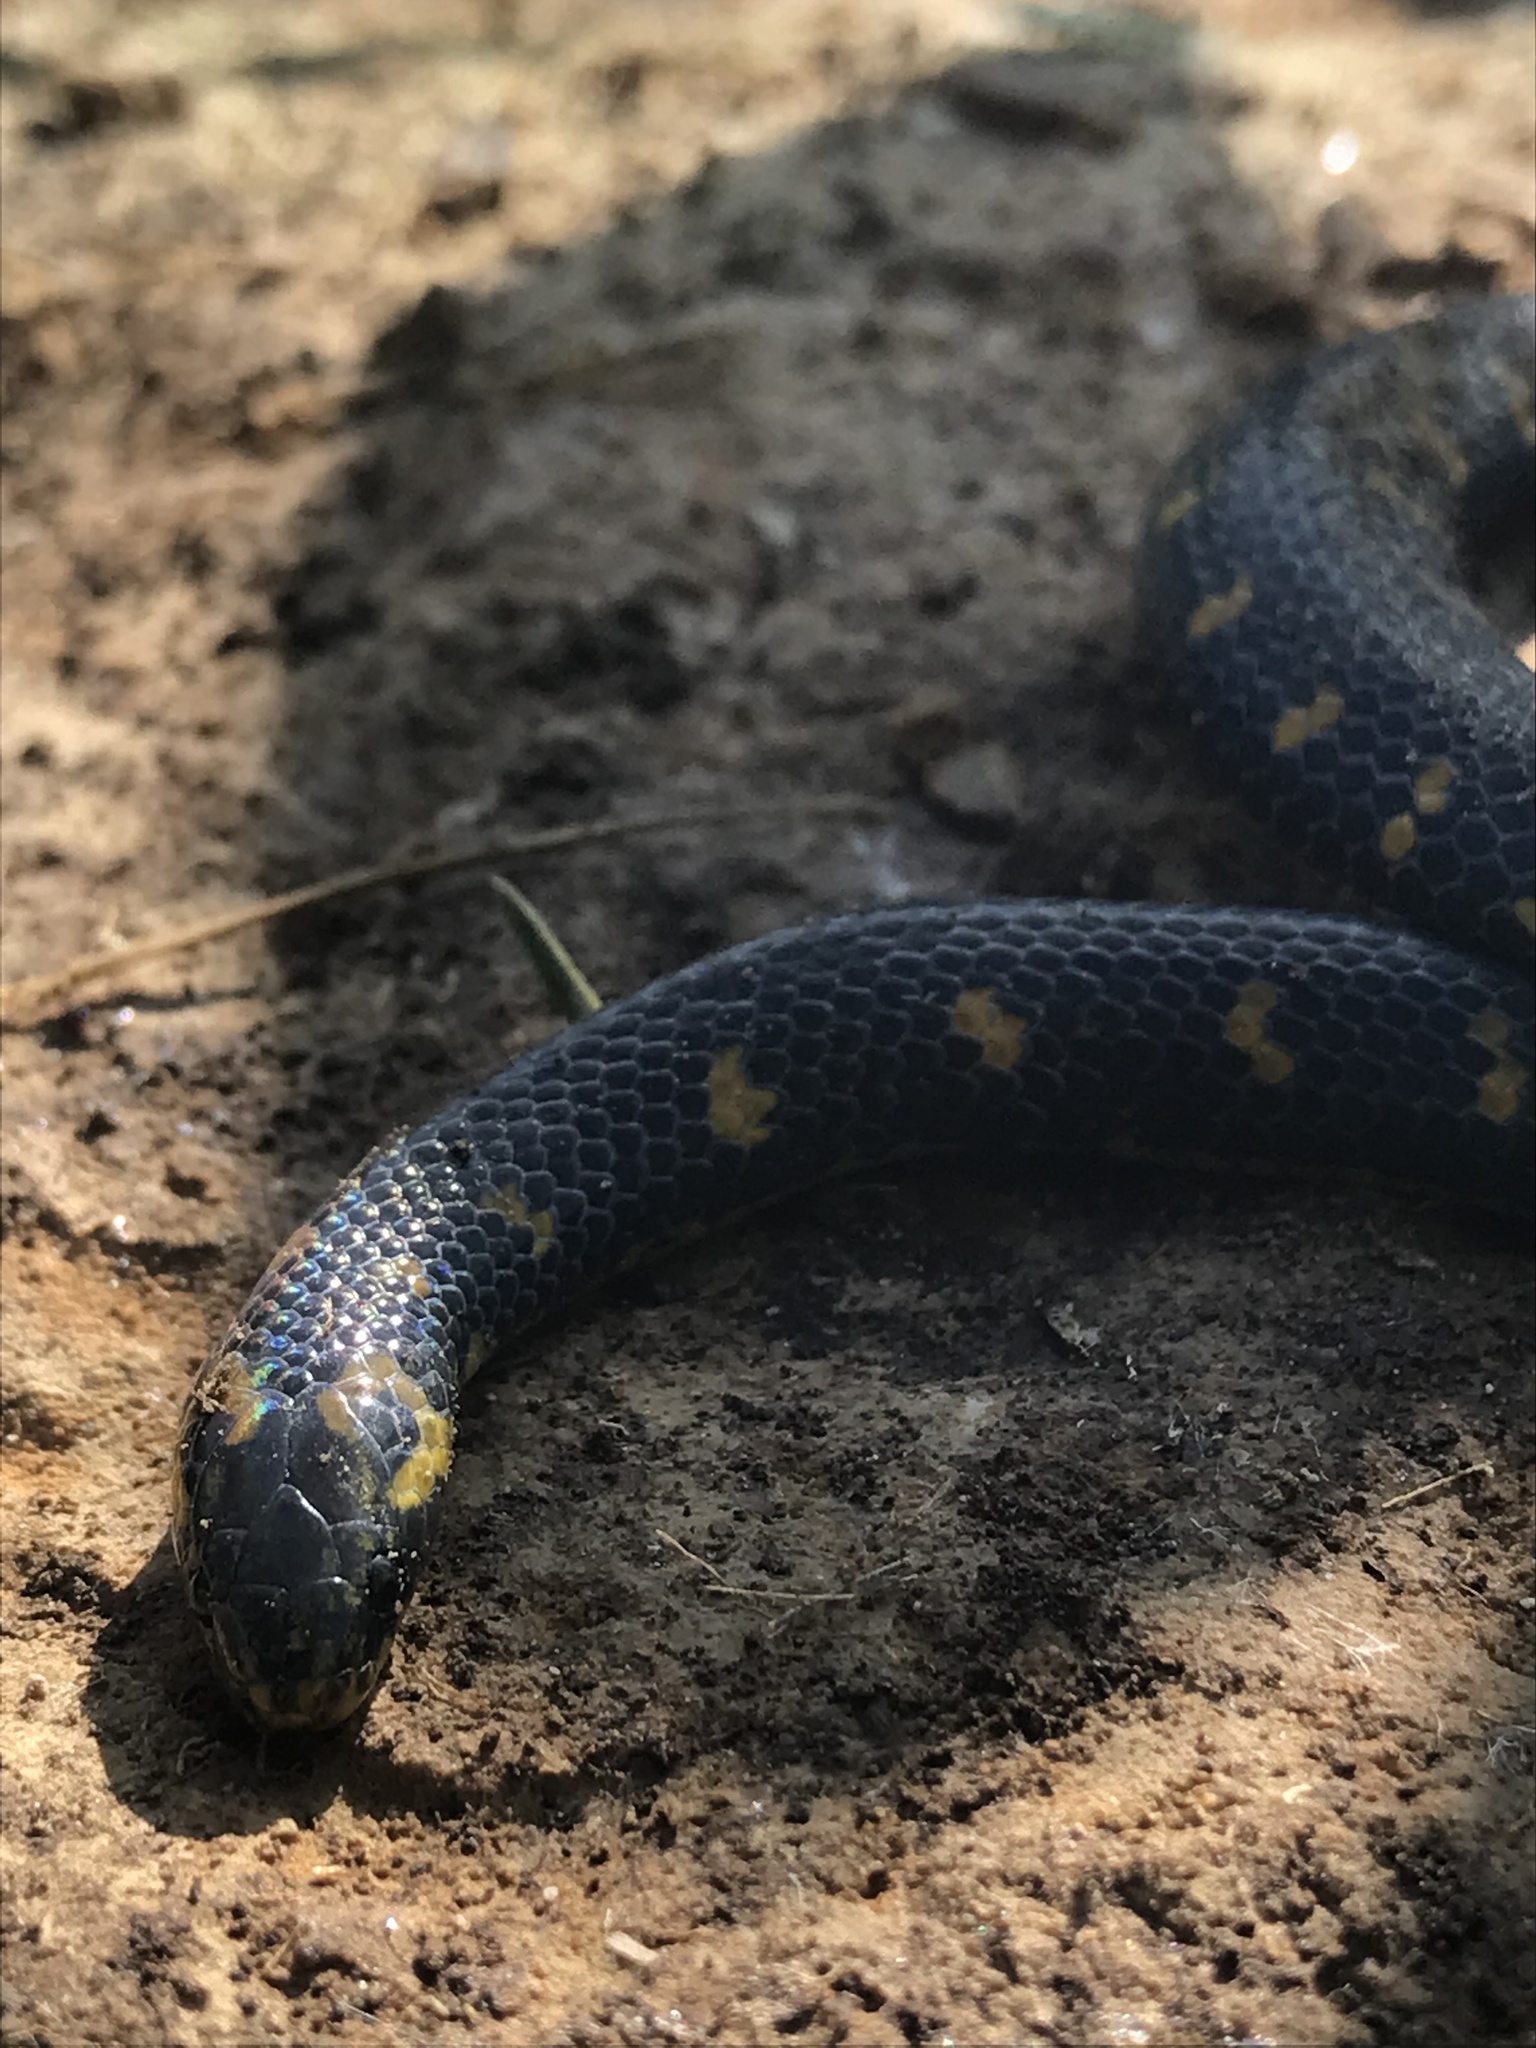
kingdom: Animalia
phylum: Chordata
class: Squamata
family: Colubridae
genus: Atractus
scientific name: Atractus crassicaudatus
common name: Thickhead ground snake
